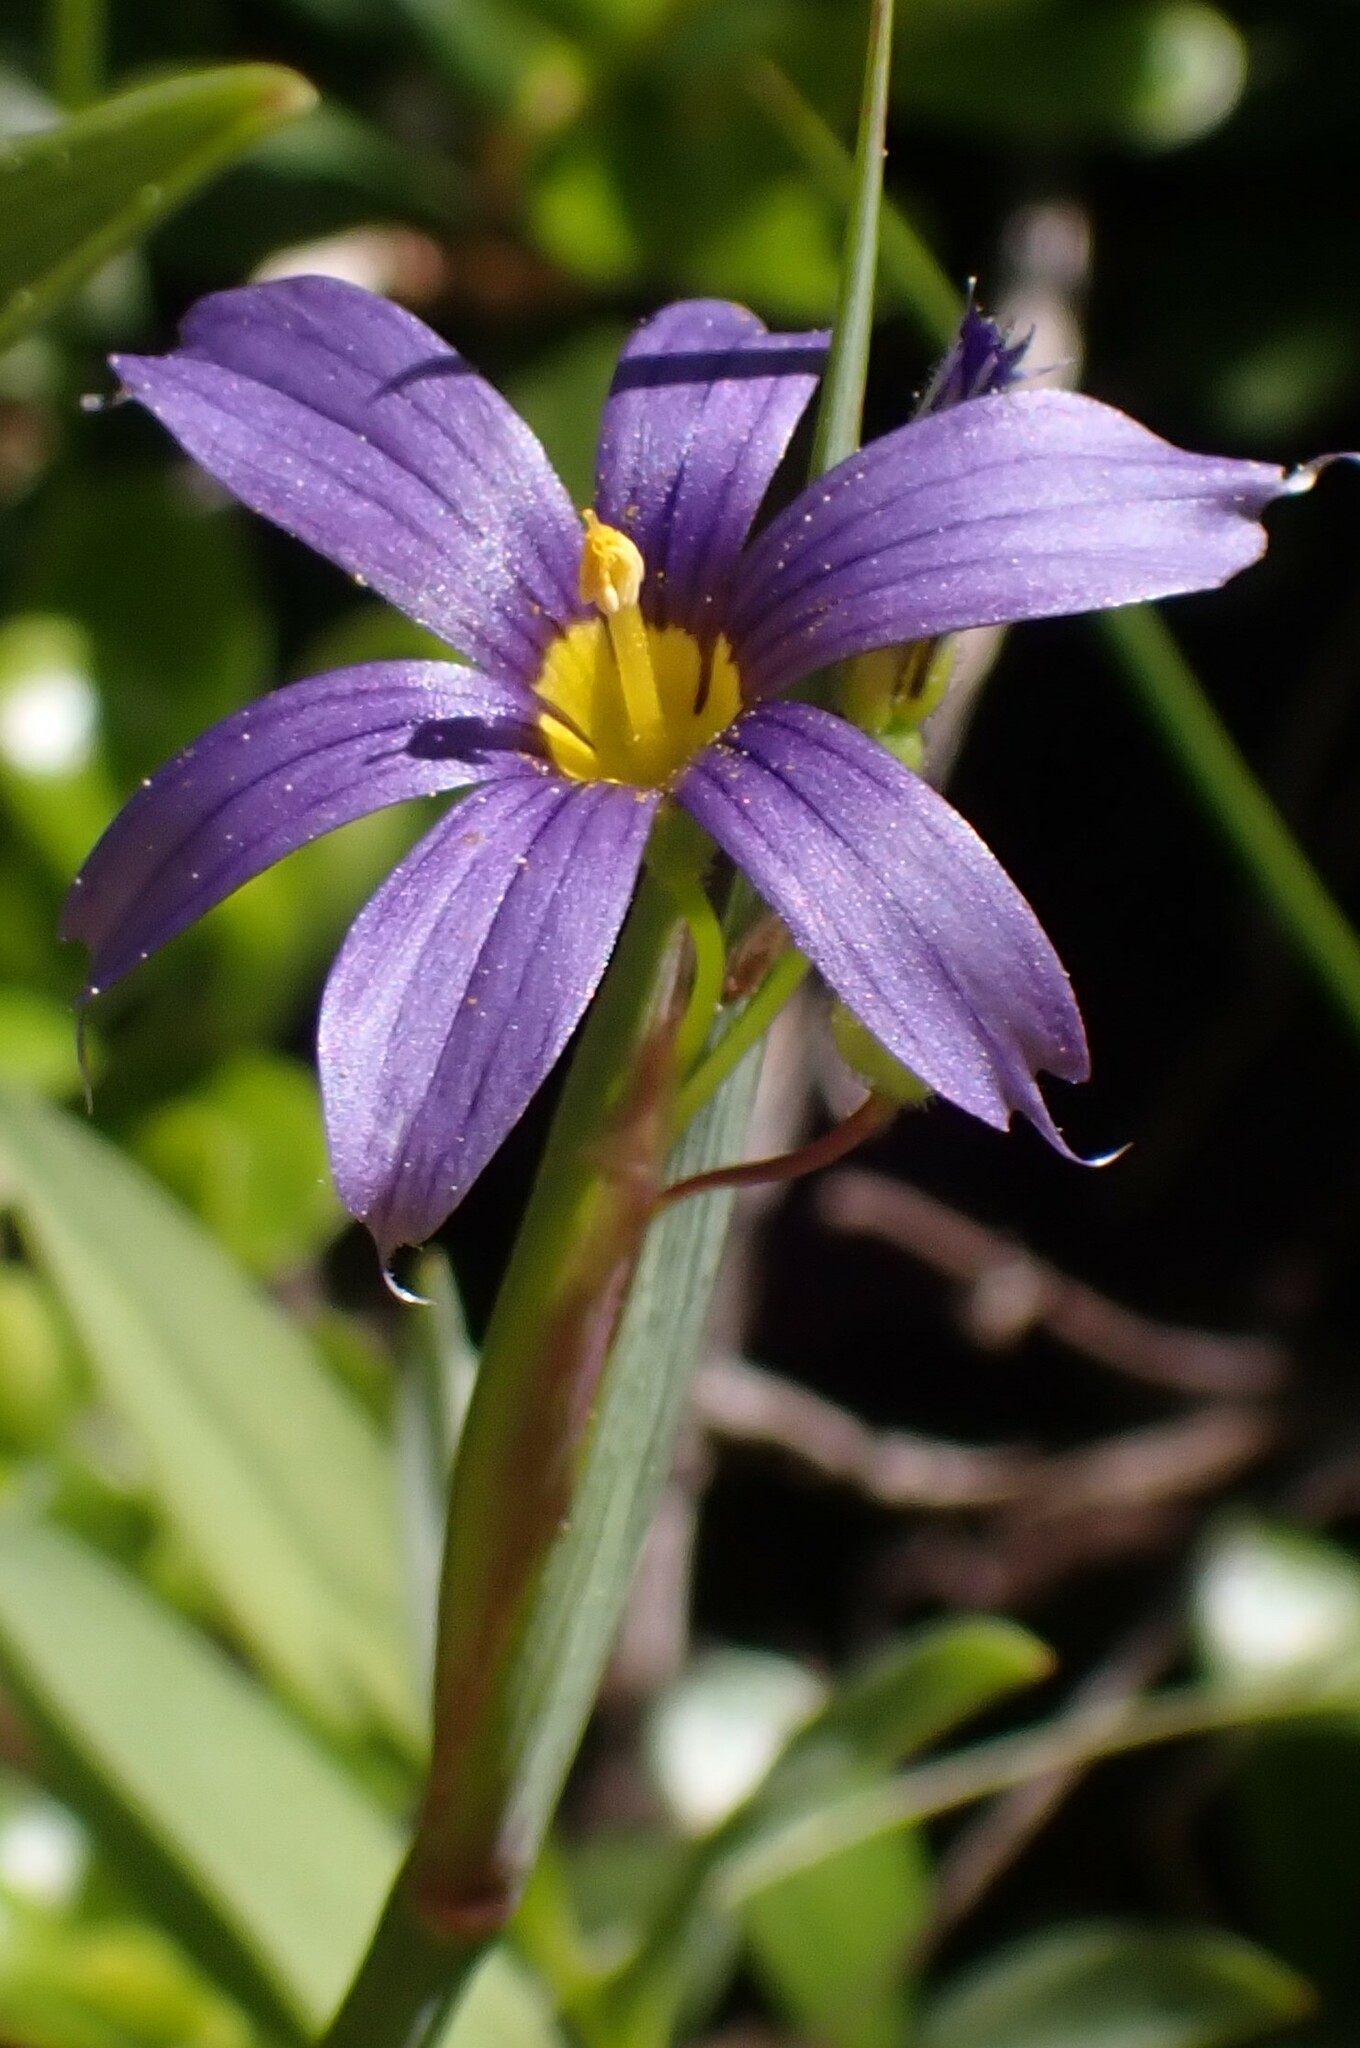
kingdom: Plantae
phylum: Tracheophyta
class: Liliopsida
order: Asparagales
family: Iridaceae
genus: Sisyrinchium
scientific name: Sisyrinchium montanum
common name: American blue-eyed-grass
